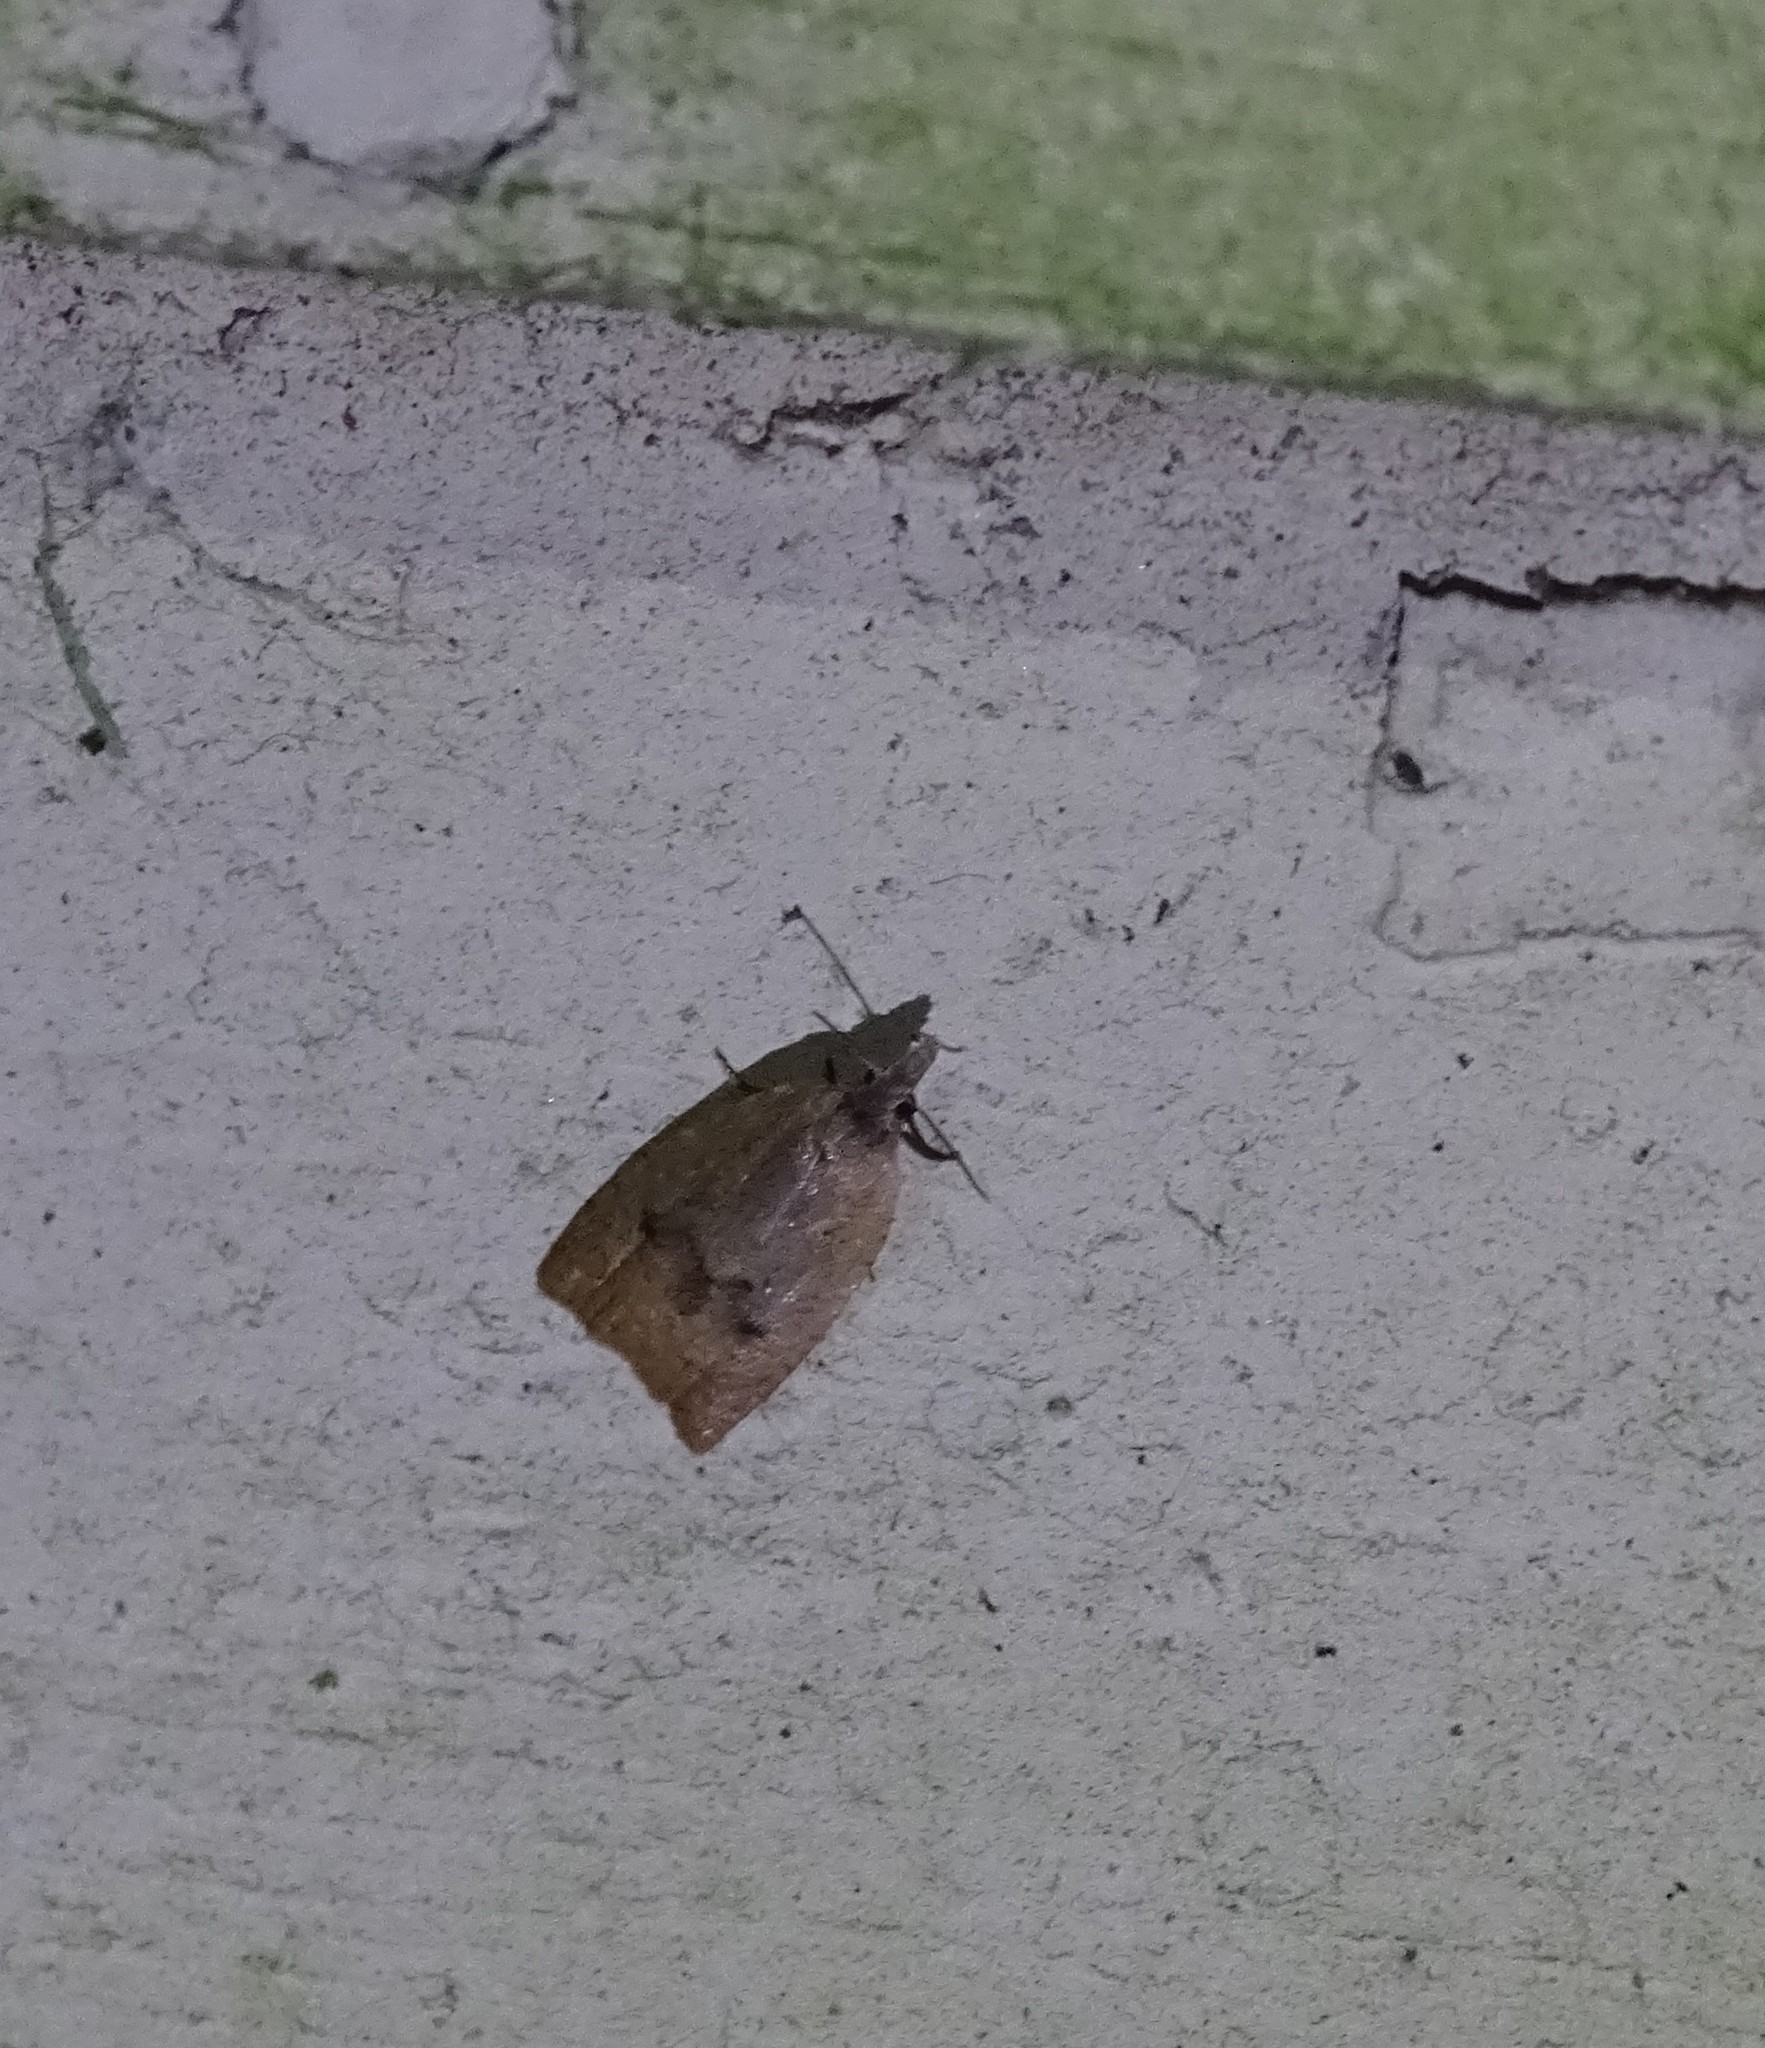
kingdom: Animalia
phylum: Arthropoda
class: Insecta
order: Lepidoptera
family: Tortricidae
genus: Sparganothoides
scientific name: Sparganothoides lentiginosana
